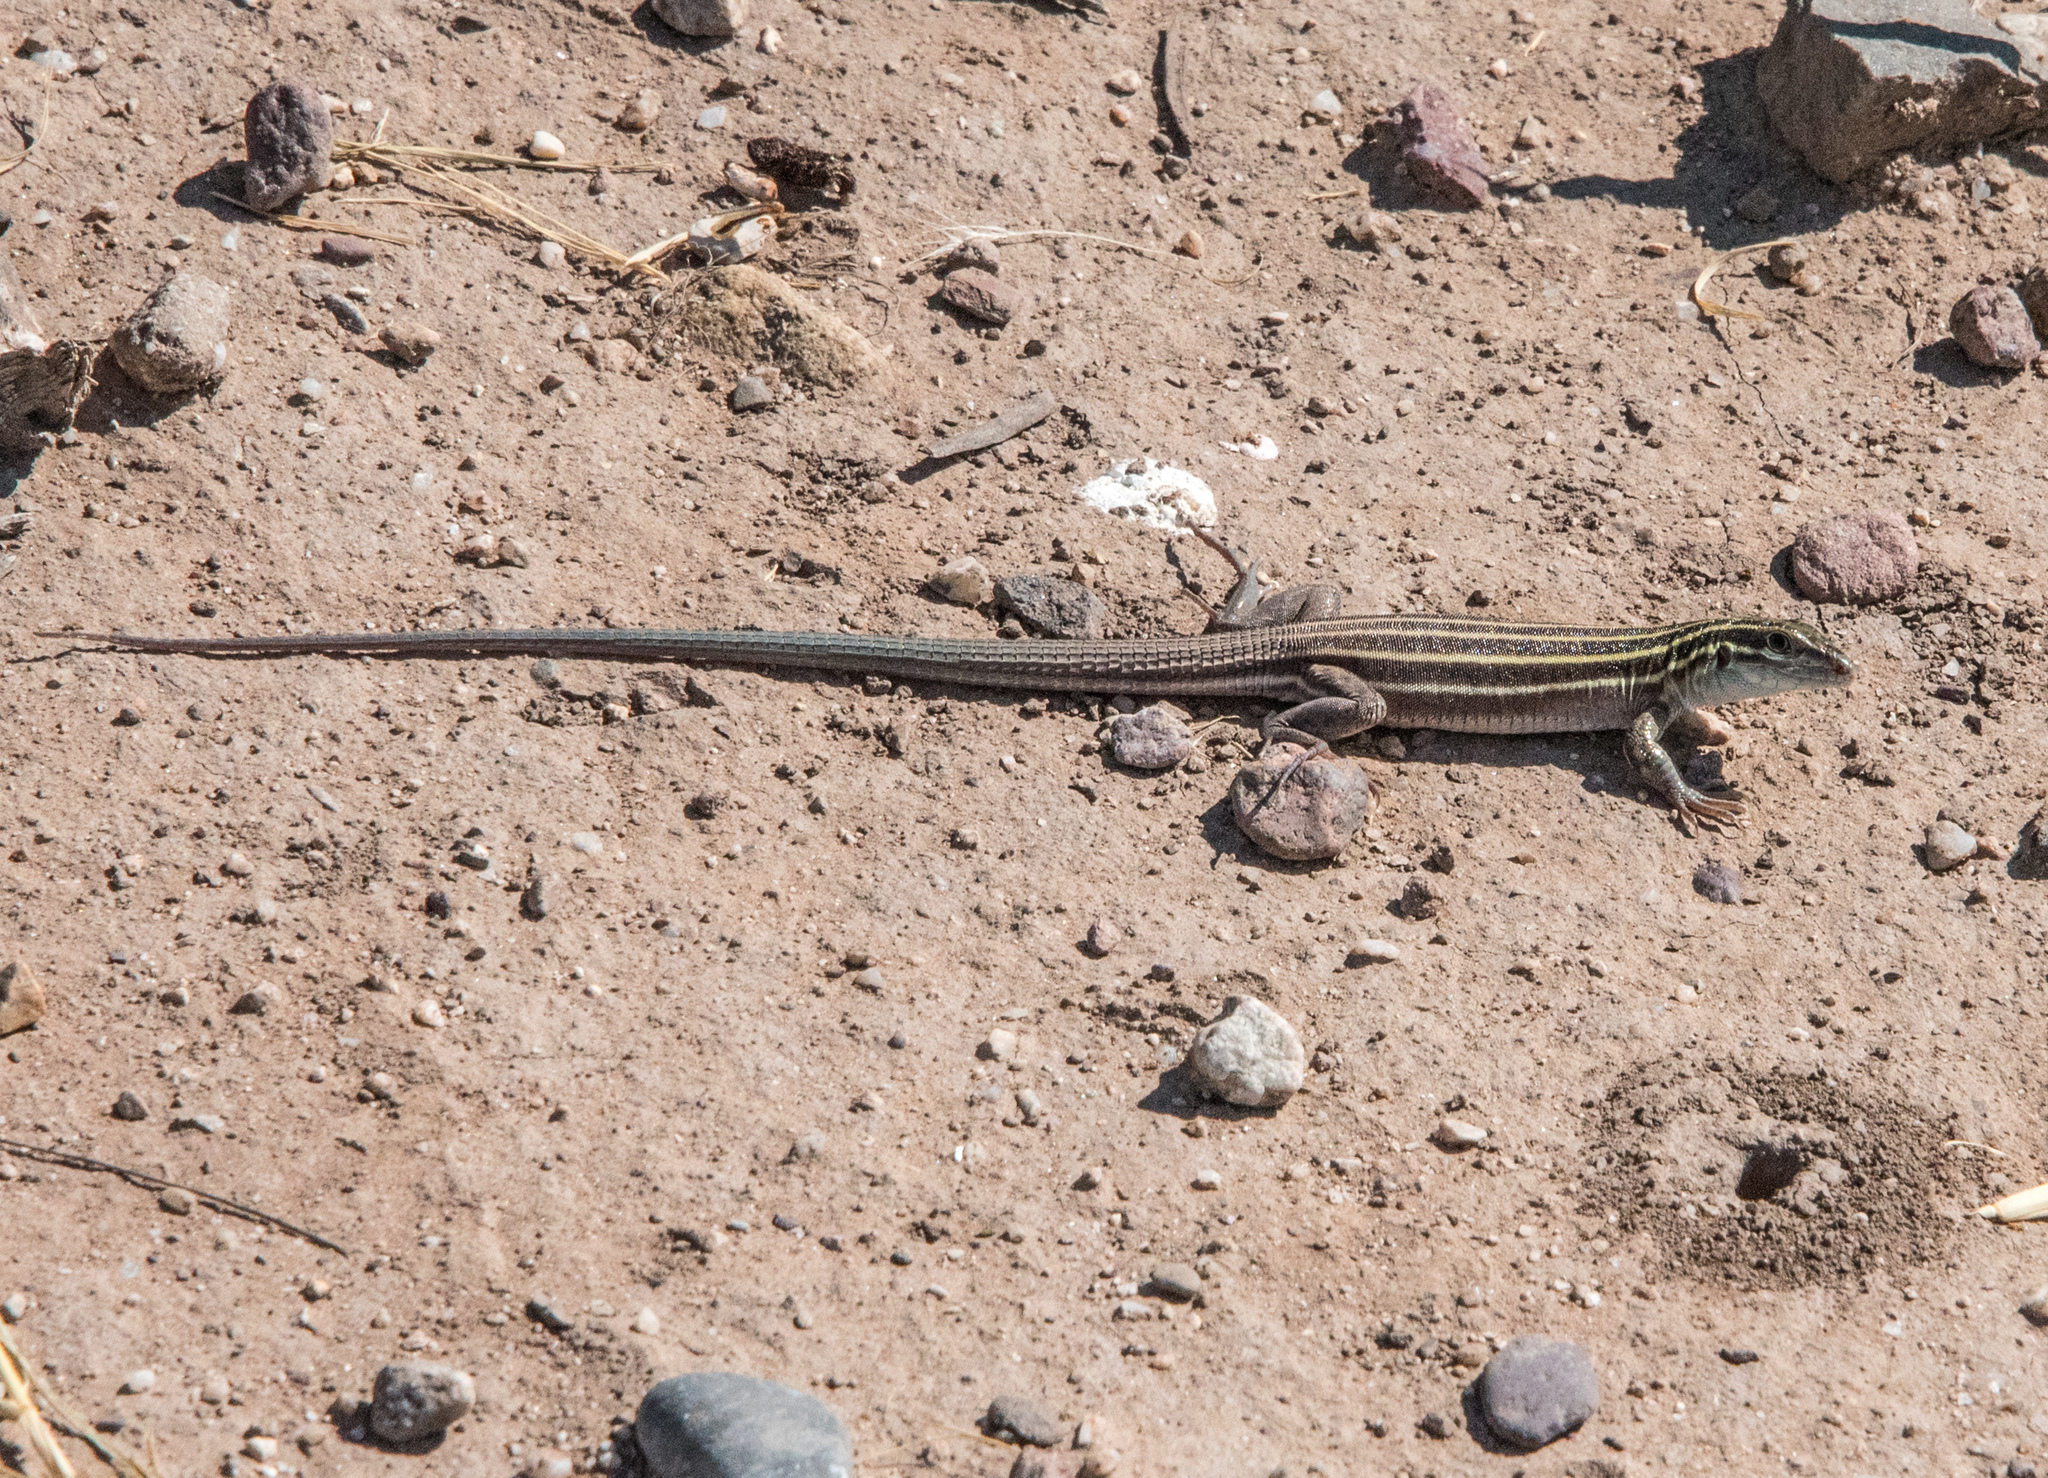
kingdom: Animalia
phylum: Chordata
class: Squamata
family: Teiidae
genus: Aspidoscelis
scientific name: Aspidoscelis uniparens
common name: Desert grassland whiptail
